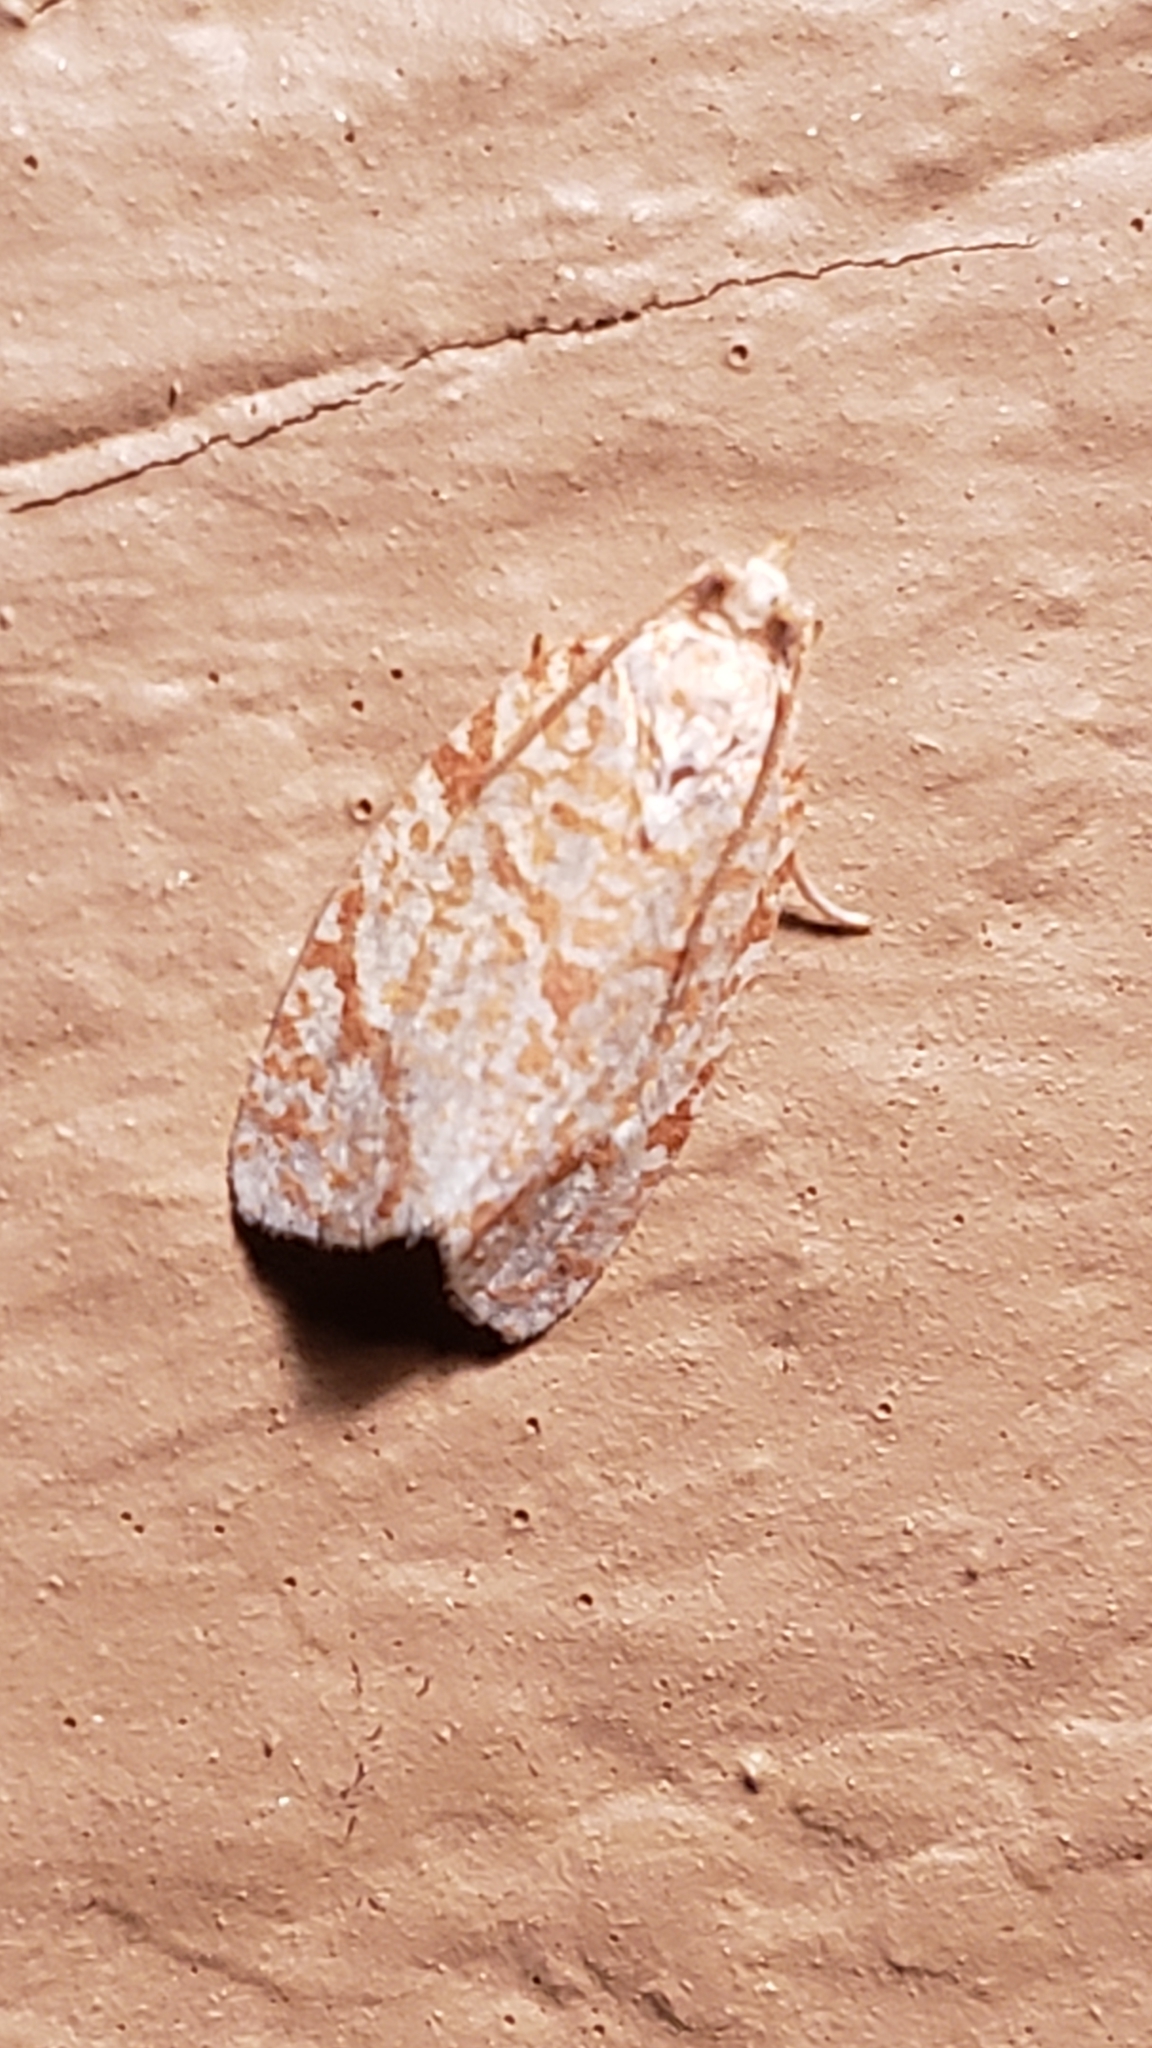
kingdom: Animalia
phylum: Arthropoda
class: Insecta
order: Lepidoptera
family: Tortricidae
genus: Argyrotaenia
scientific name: Argyrotaenia quercifoliana
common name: Yellow-winged oak leafroller moth
